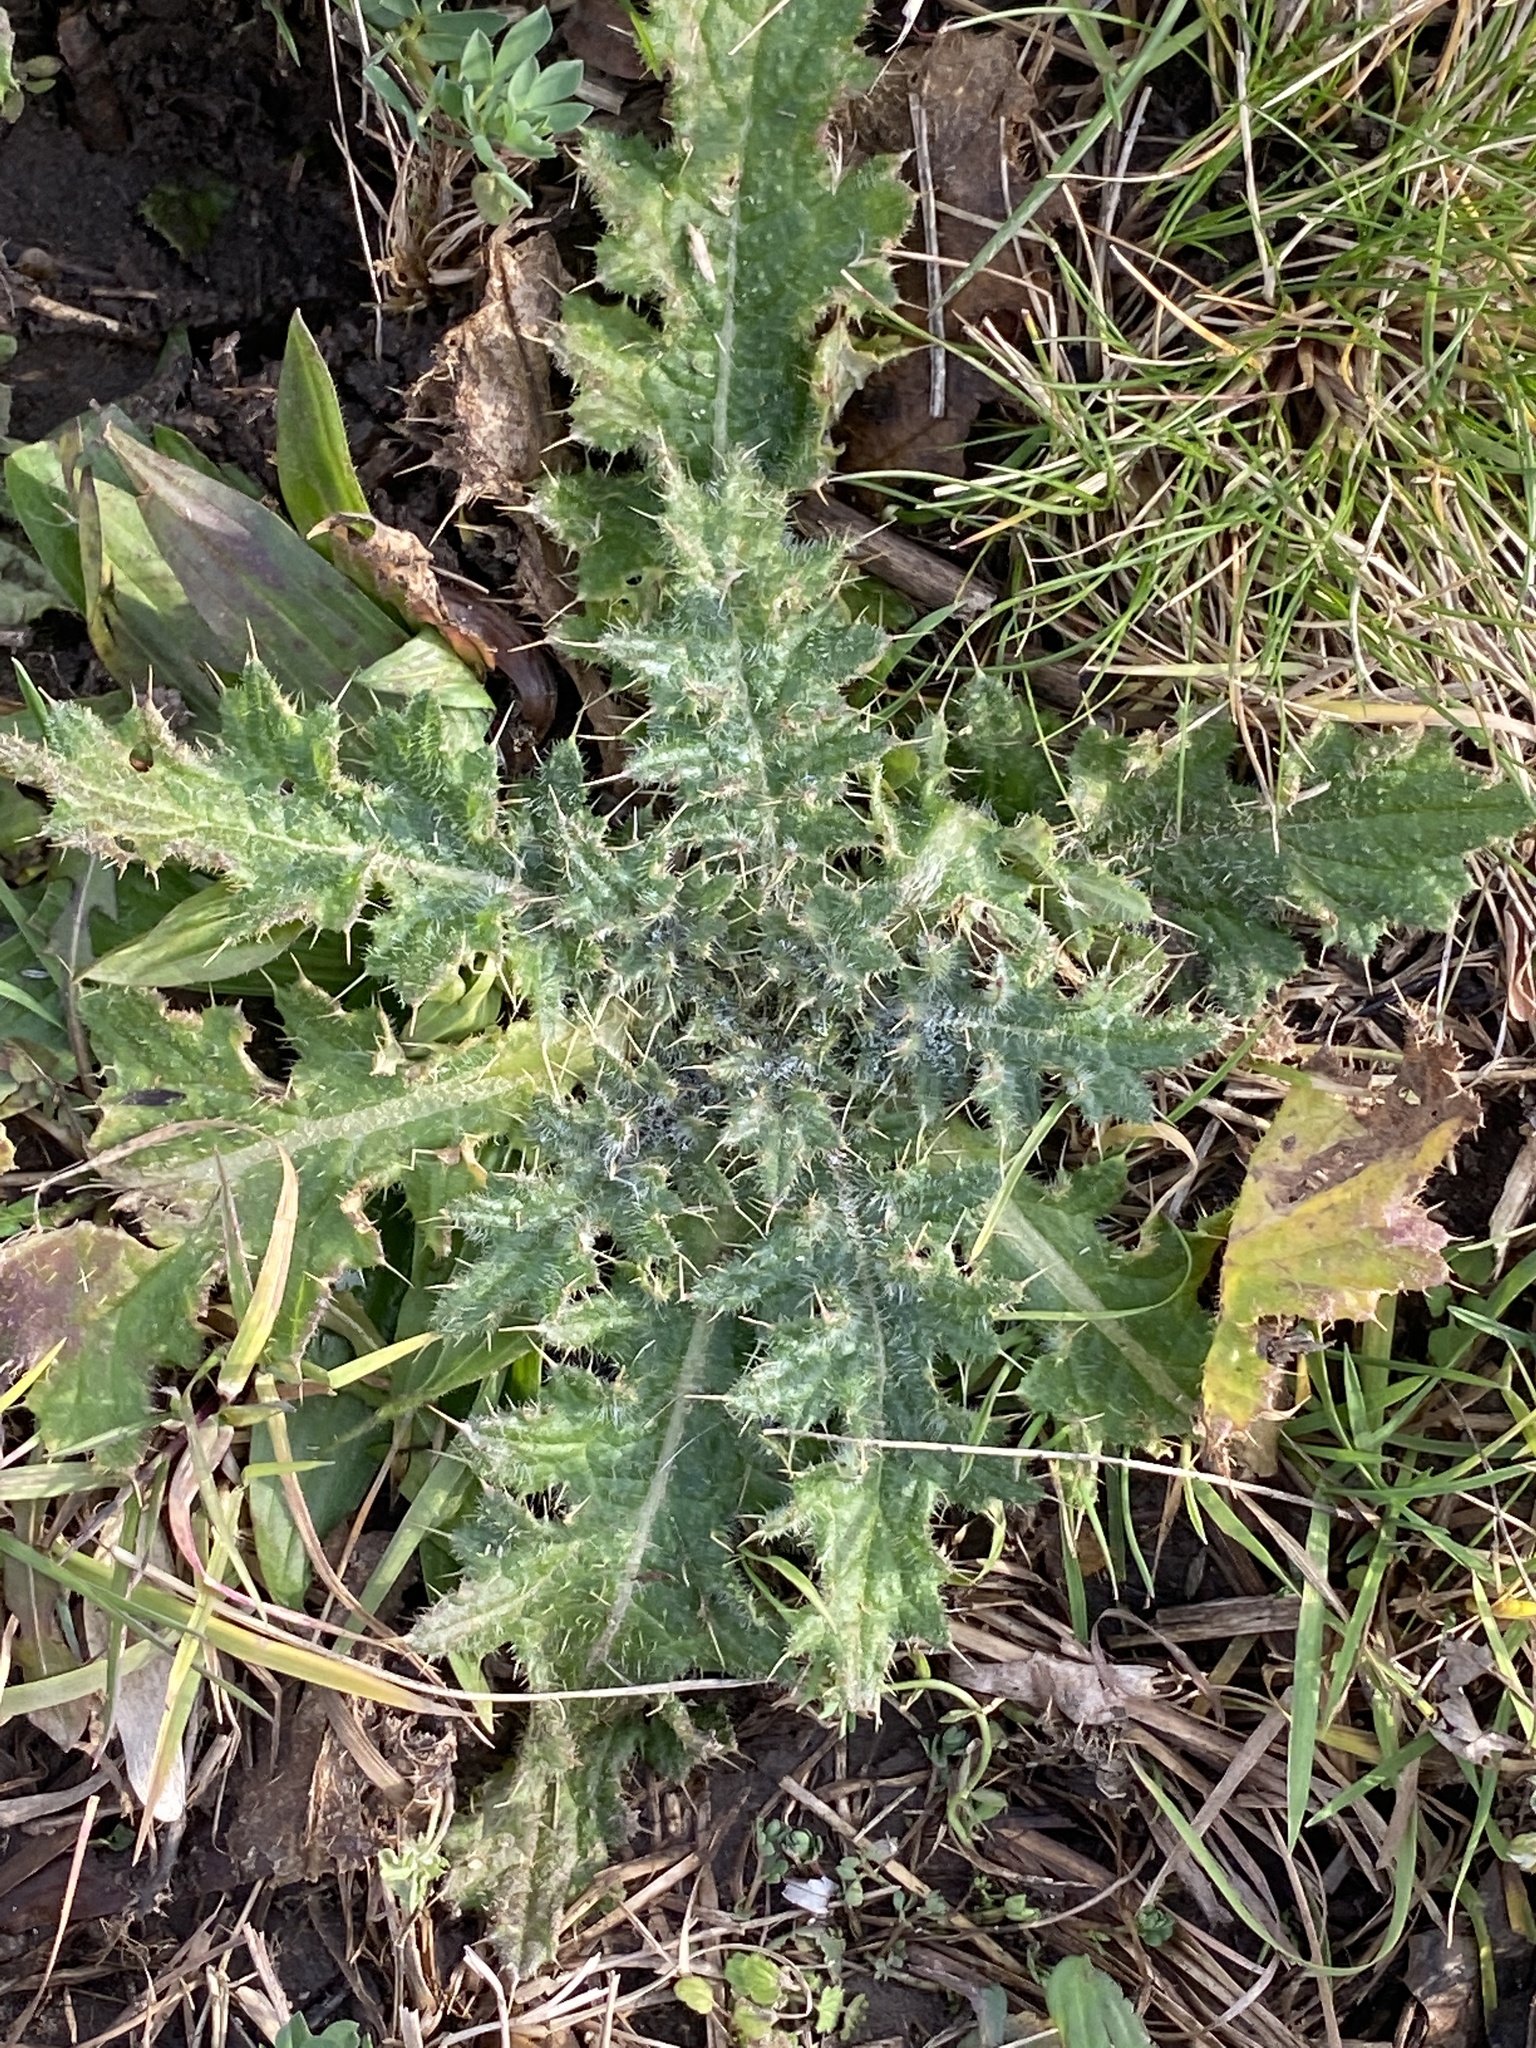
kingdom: Plantae
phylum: Tracheophyta
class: Magnoliopsida
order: Asterales
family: Asteraceae
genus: Cirsium
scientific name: Cirsium vulgare
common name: Bull thistle
